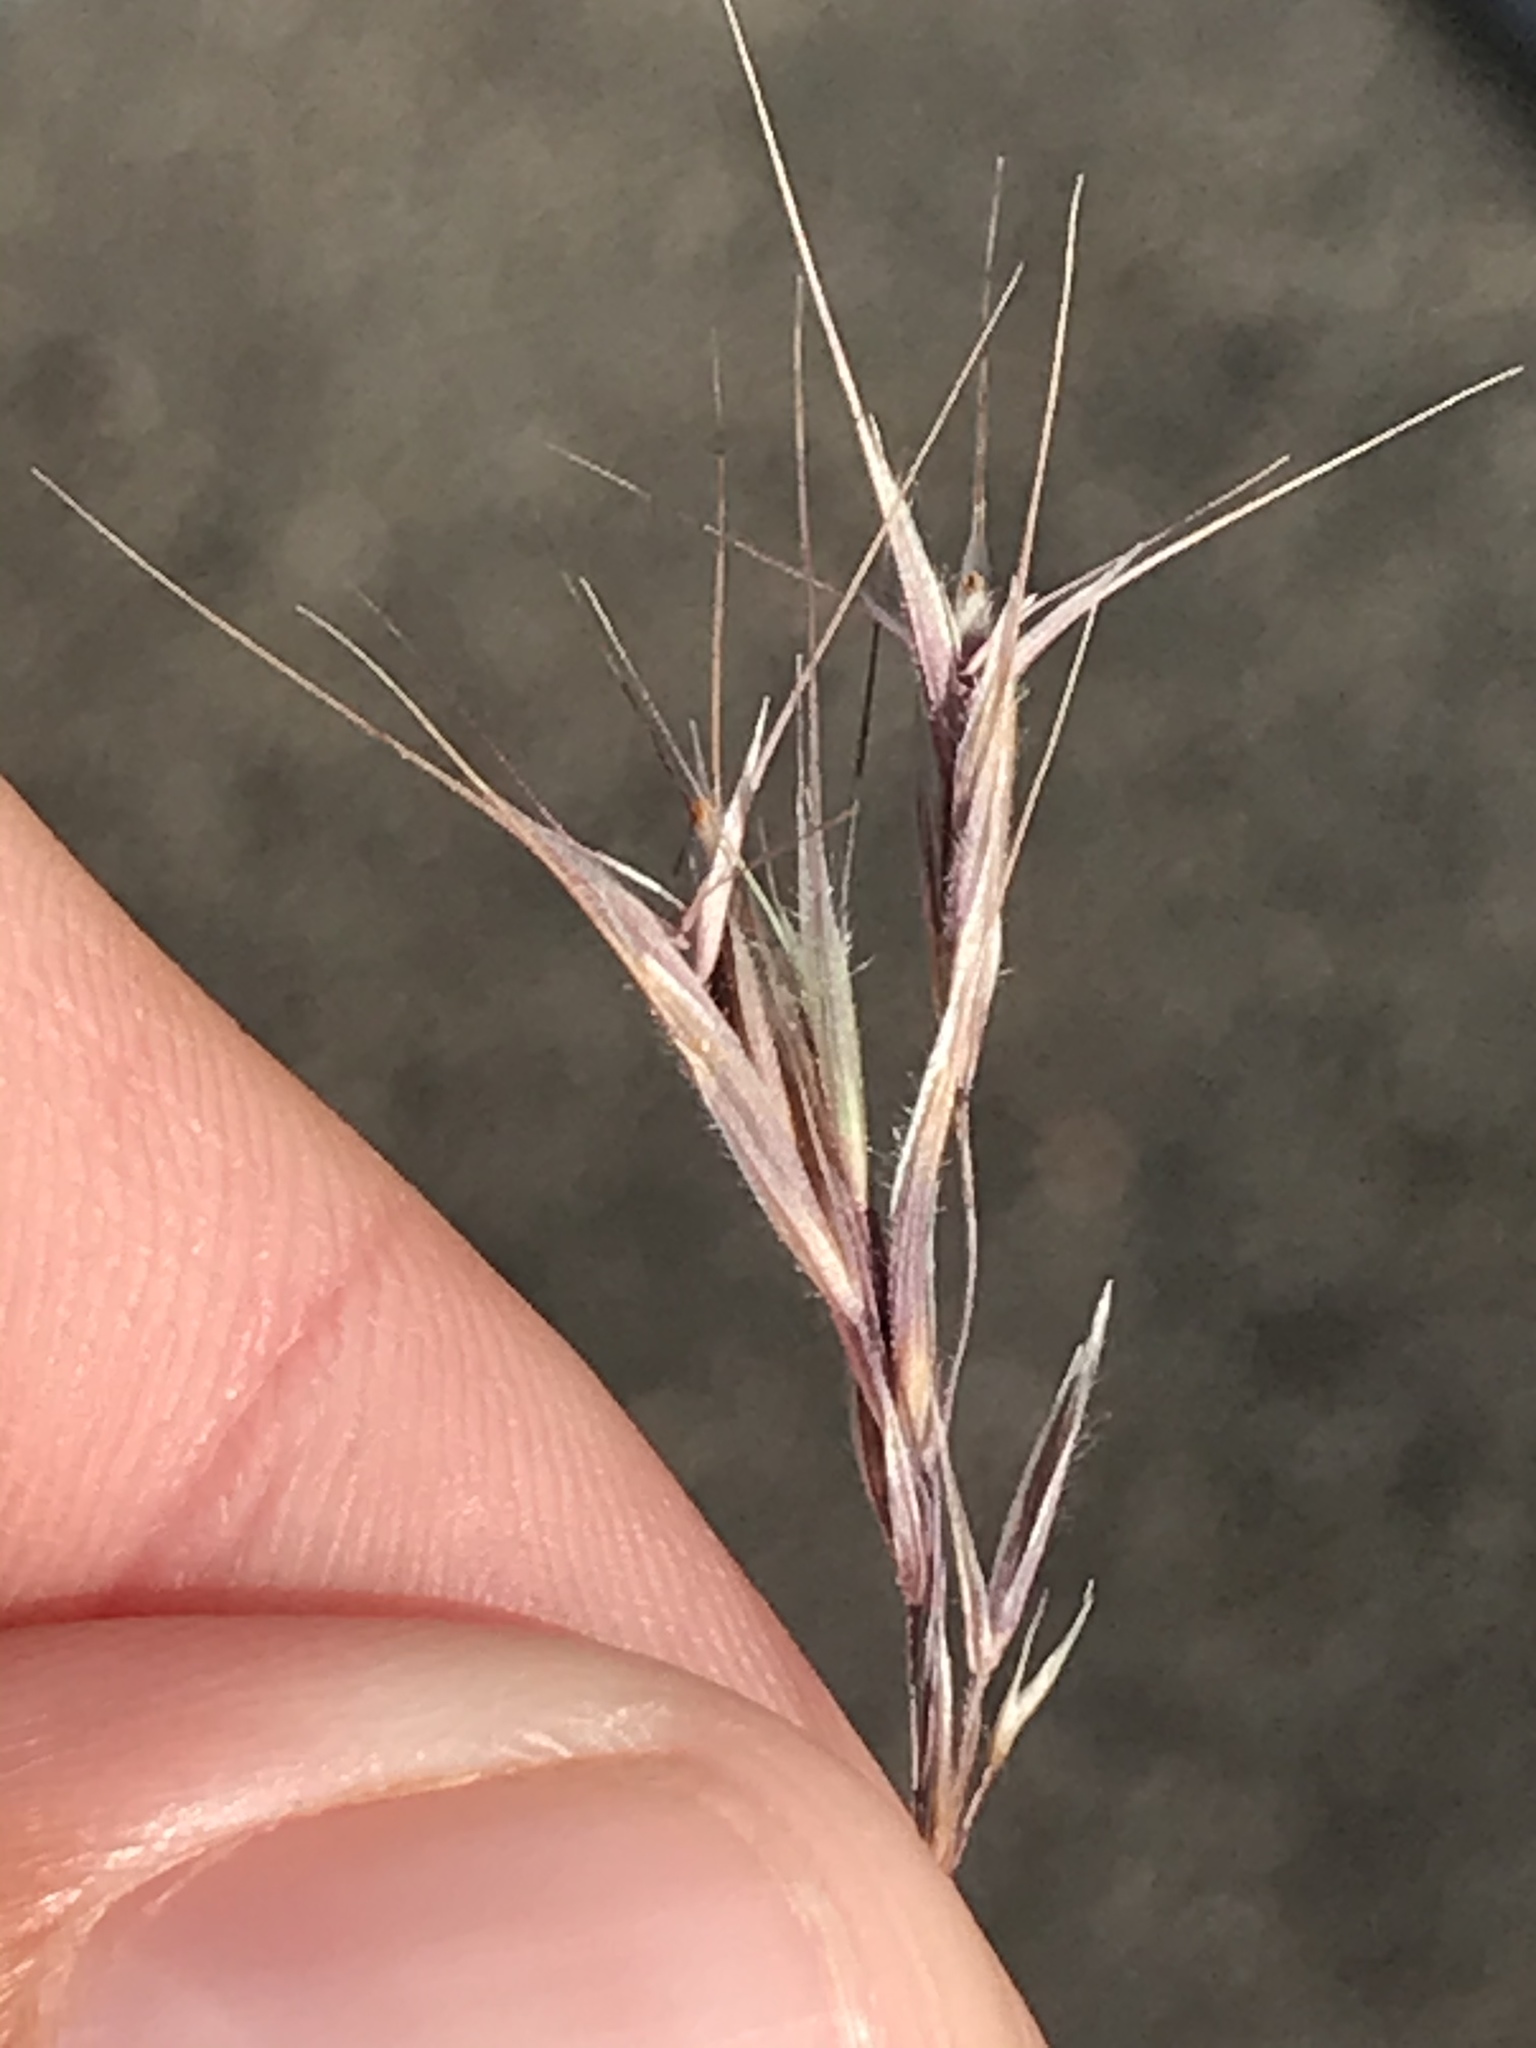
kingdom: Plantae
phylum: Tracheophyta
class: Liliopsida
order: Poales
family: Poaceae
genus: Bromus
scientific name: Bromus tectorum
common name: Cheatgrass
